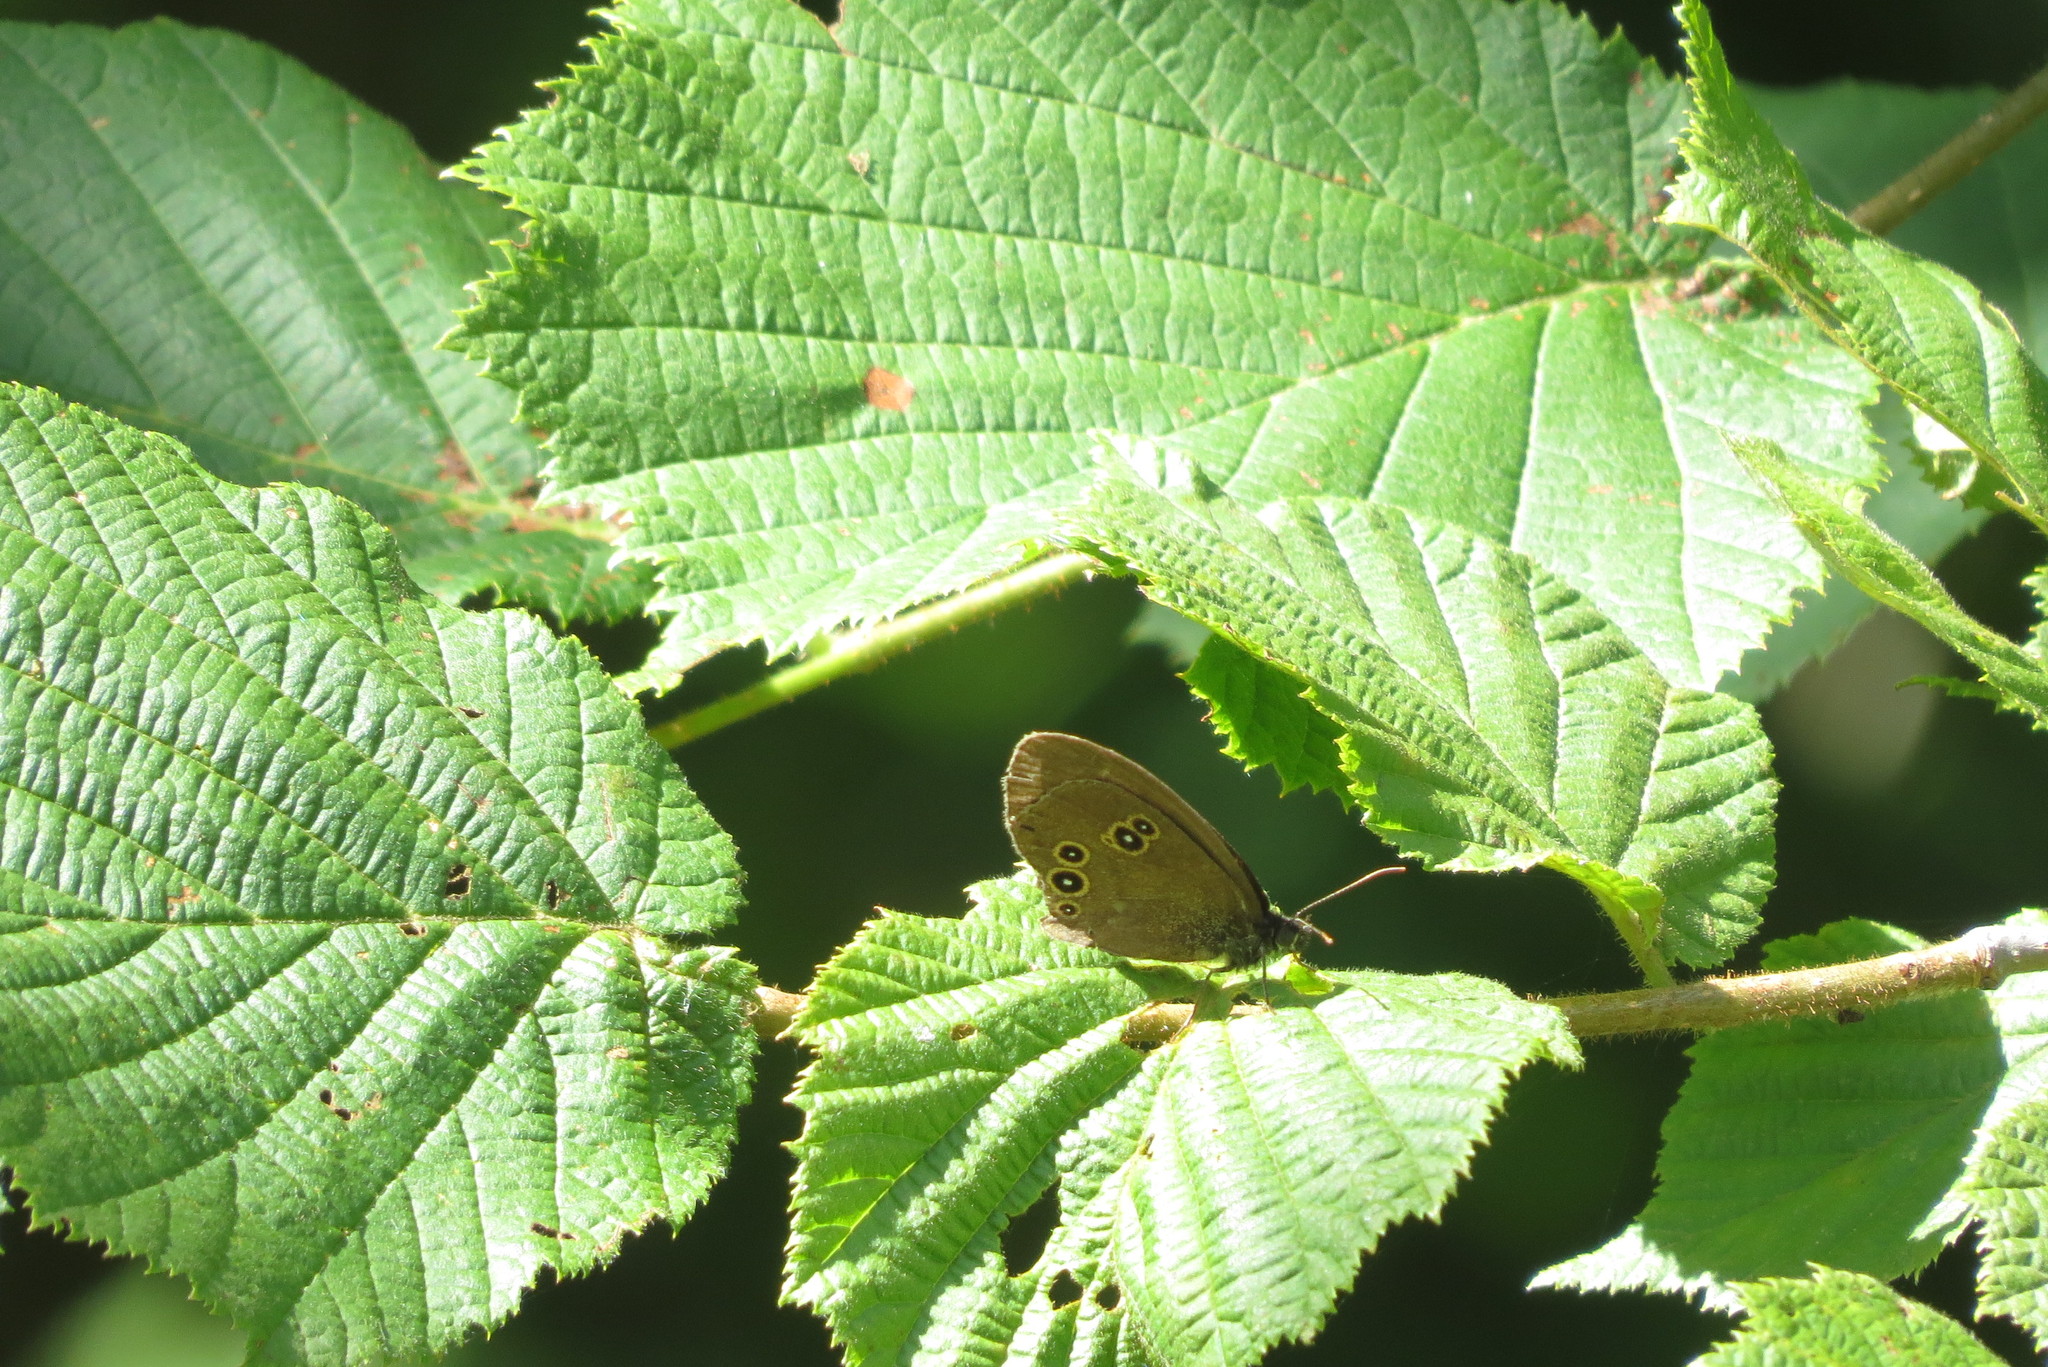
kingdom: Animalia
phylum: Arthropoda
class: Insecta
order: Lepidoptera
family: Nymphalidae
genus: Aphantopus
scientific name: Aphantopus hyperantus
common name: Ringlet
